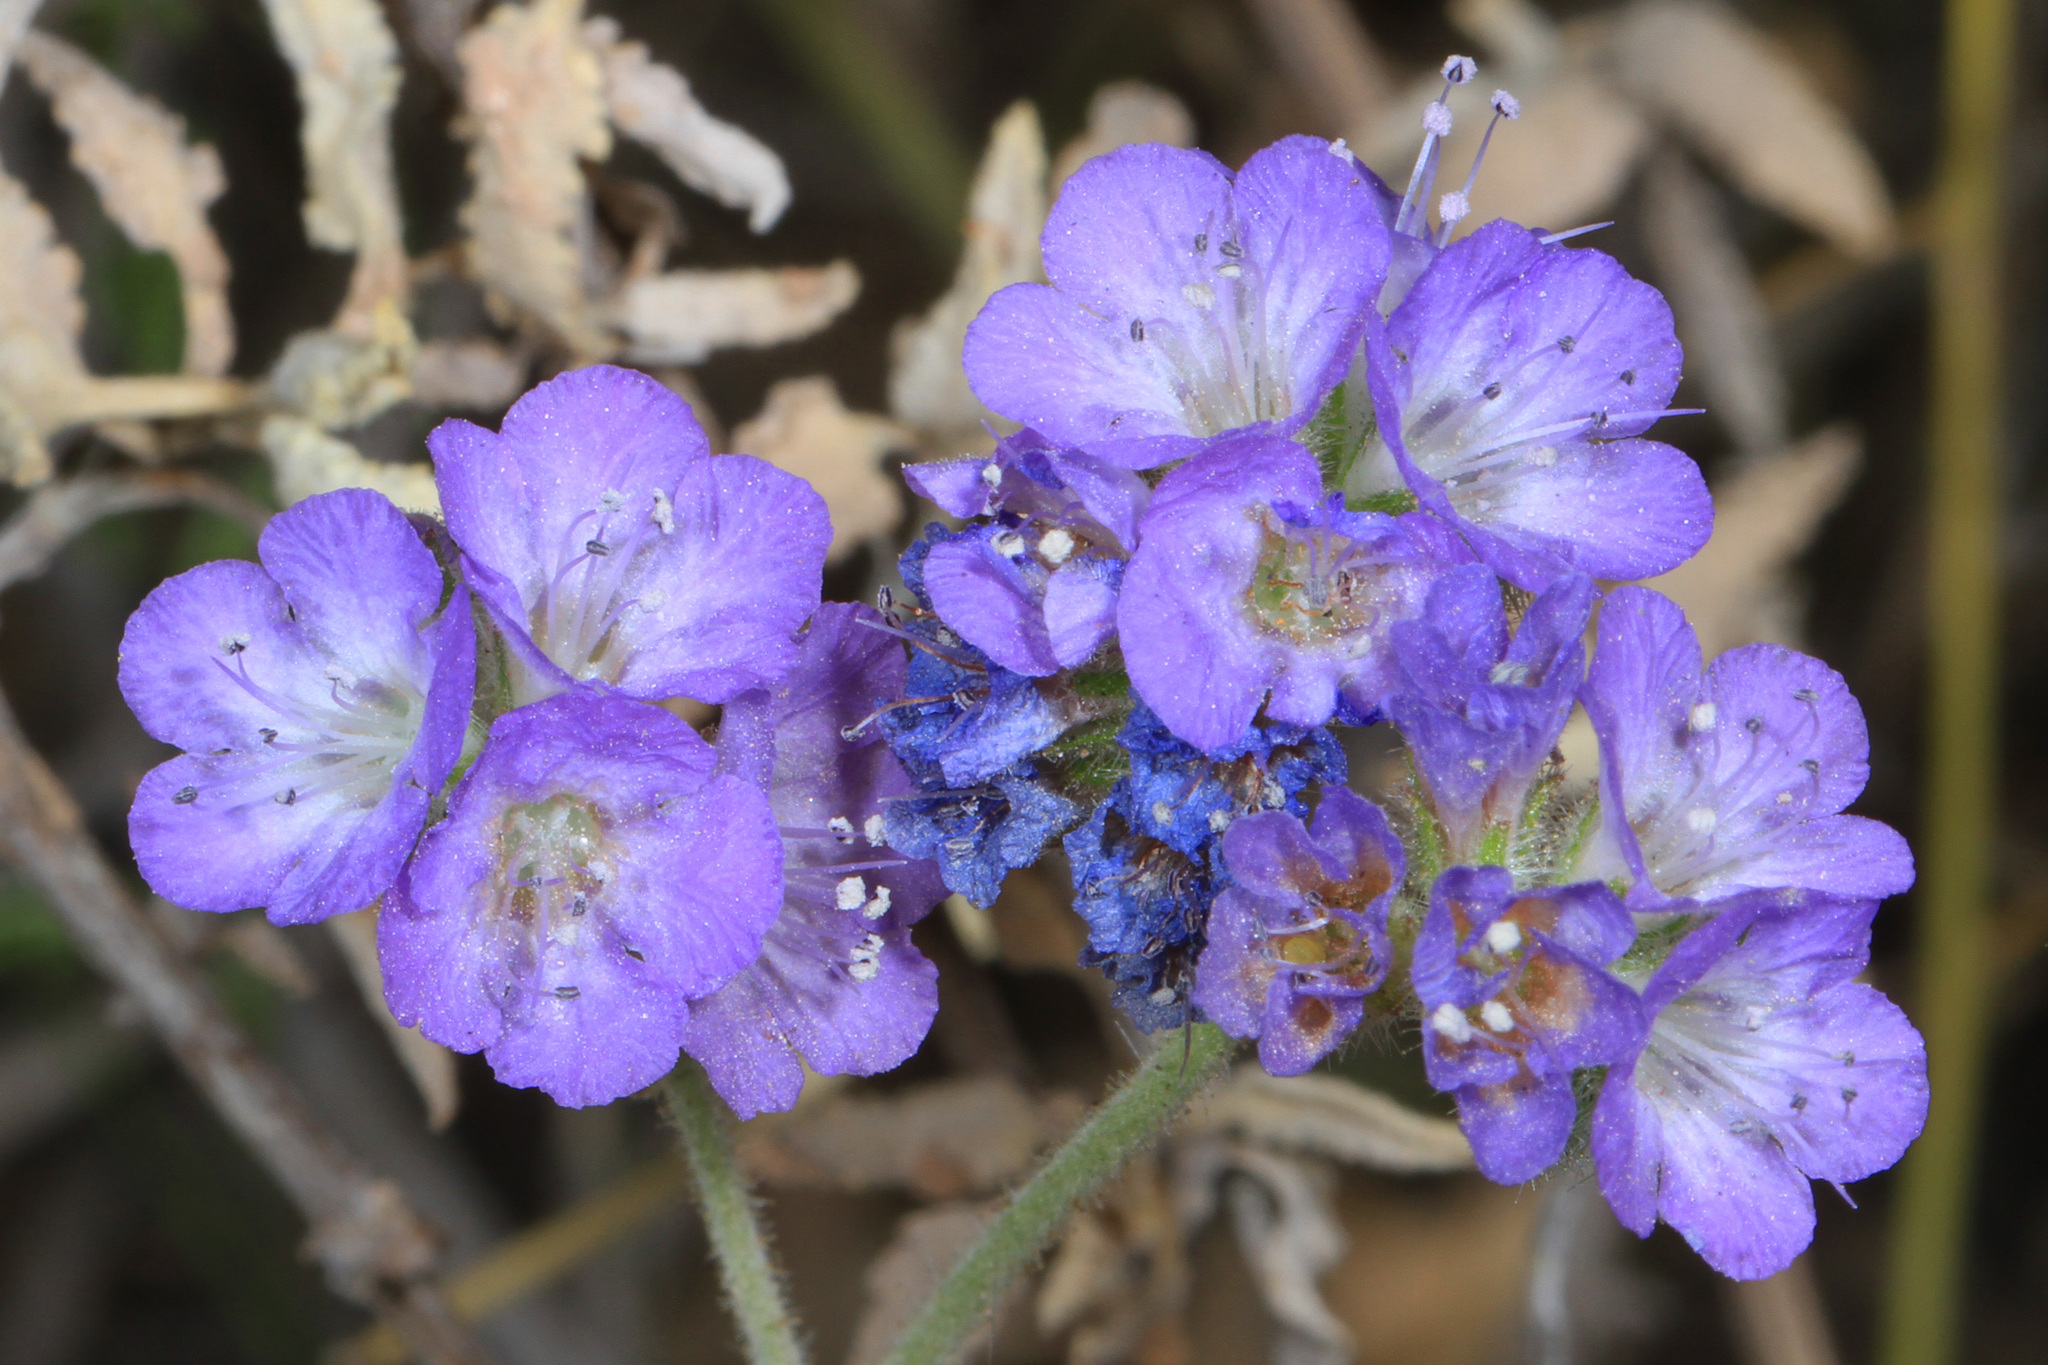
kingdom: Plantae
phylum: Tracheophyta
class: Magnoliopsida
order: Boraginales
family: Hydrophyllaceae
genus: Phacelia
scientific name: Phacelia distans
